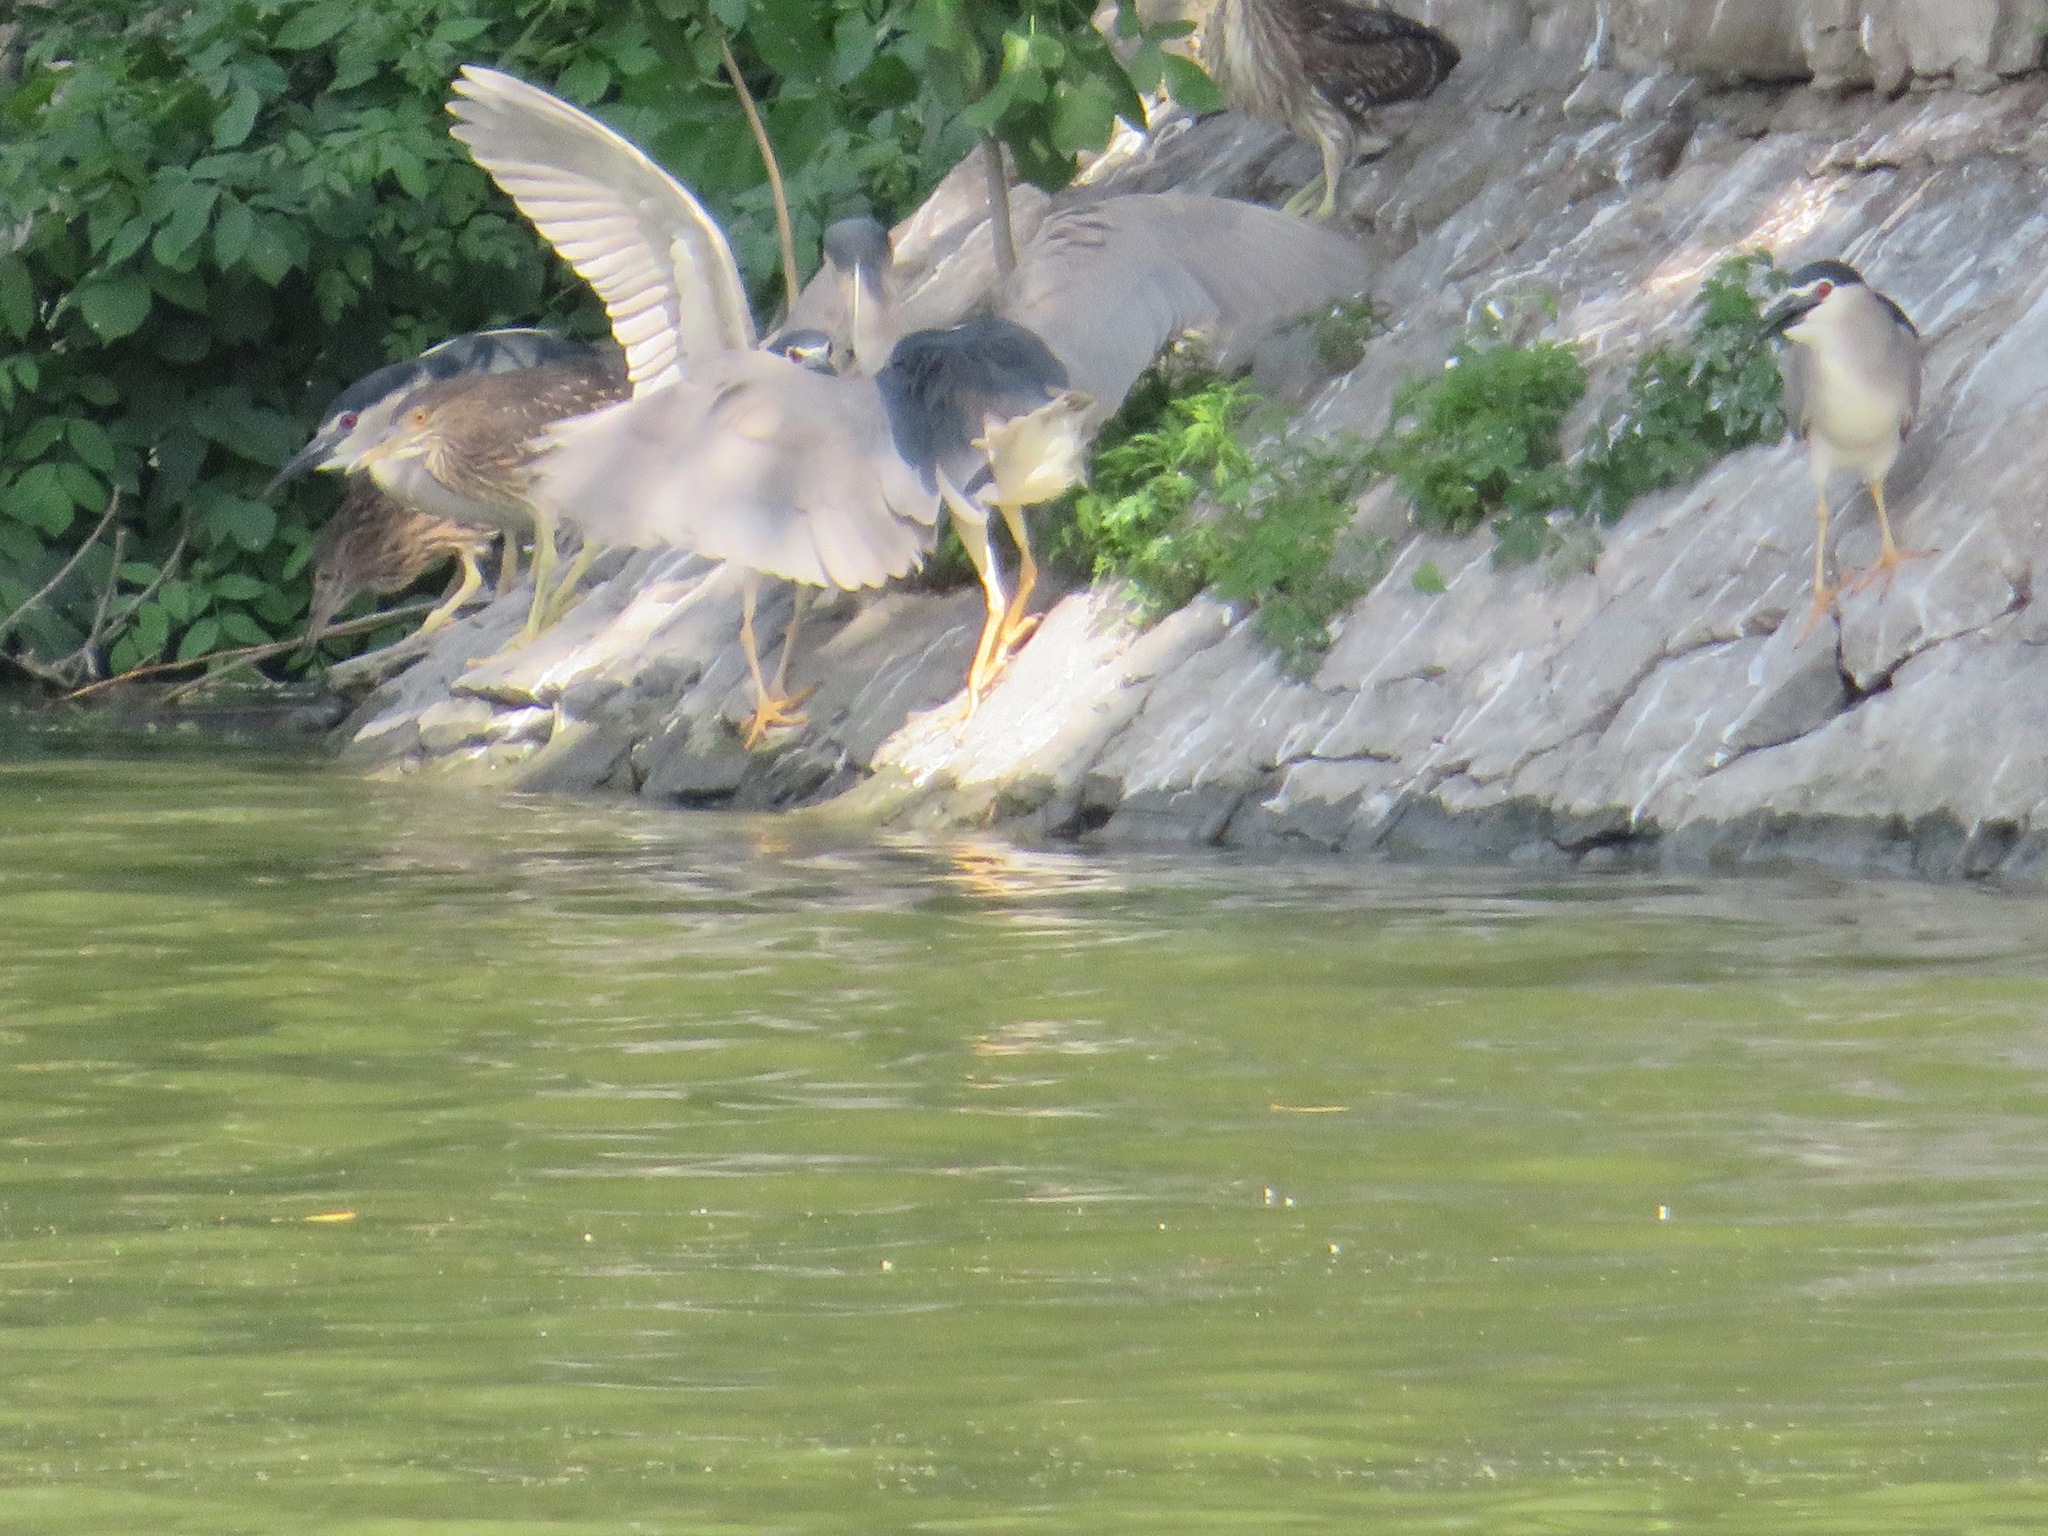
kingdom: Animalia
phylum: Chordata
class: Aves
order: Pelecaniformes
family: Ardeidae
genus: Nycticorax
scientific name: Nycticorax nycticorax
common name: Black-crowned night heron
